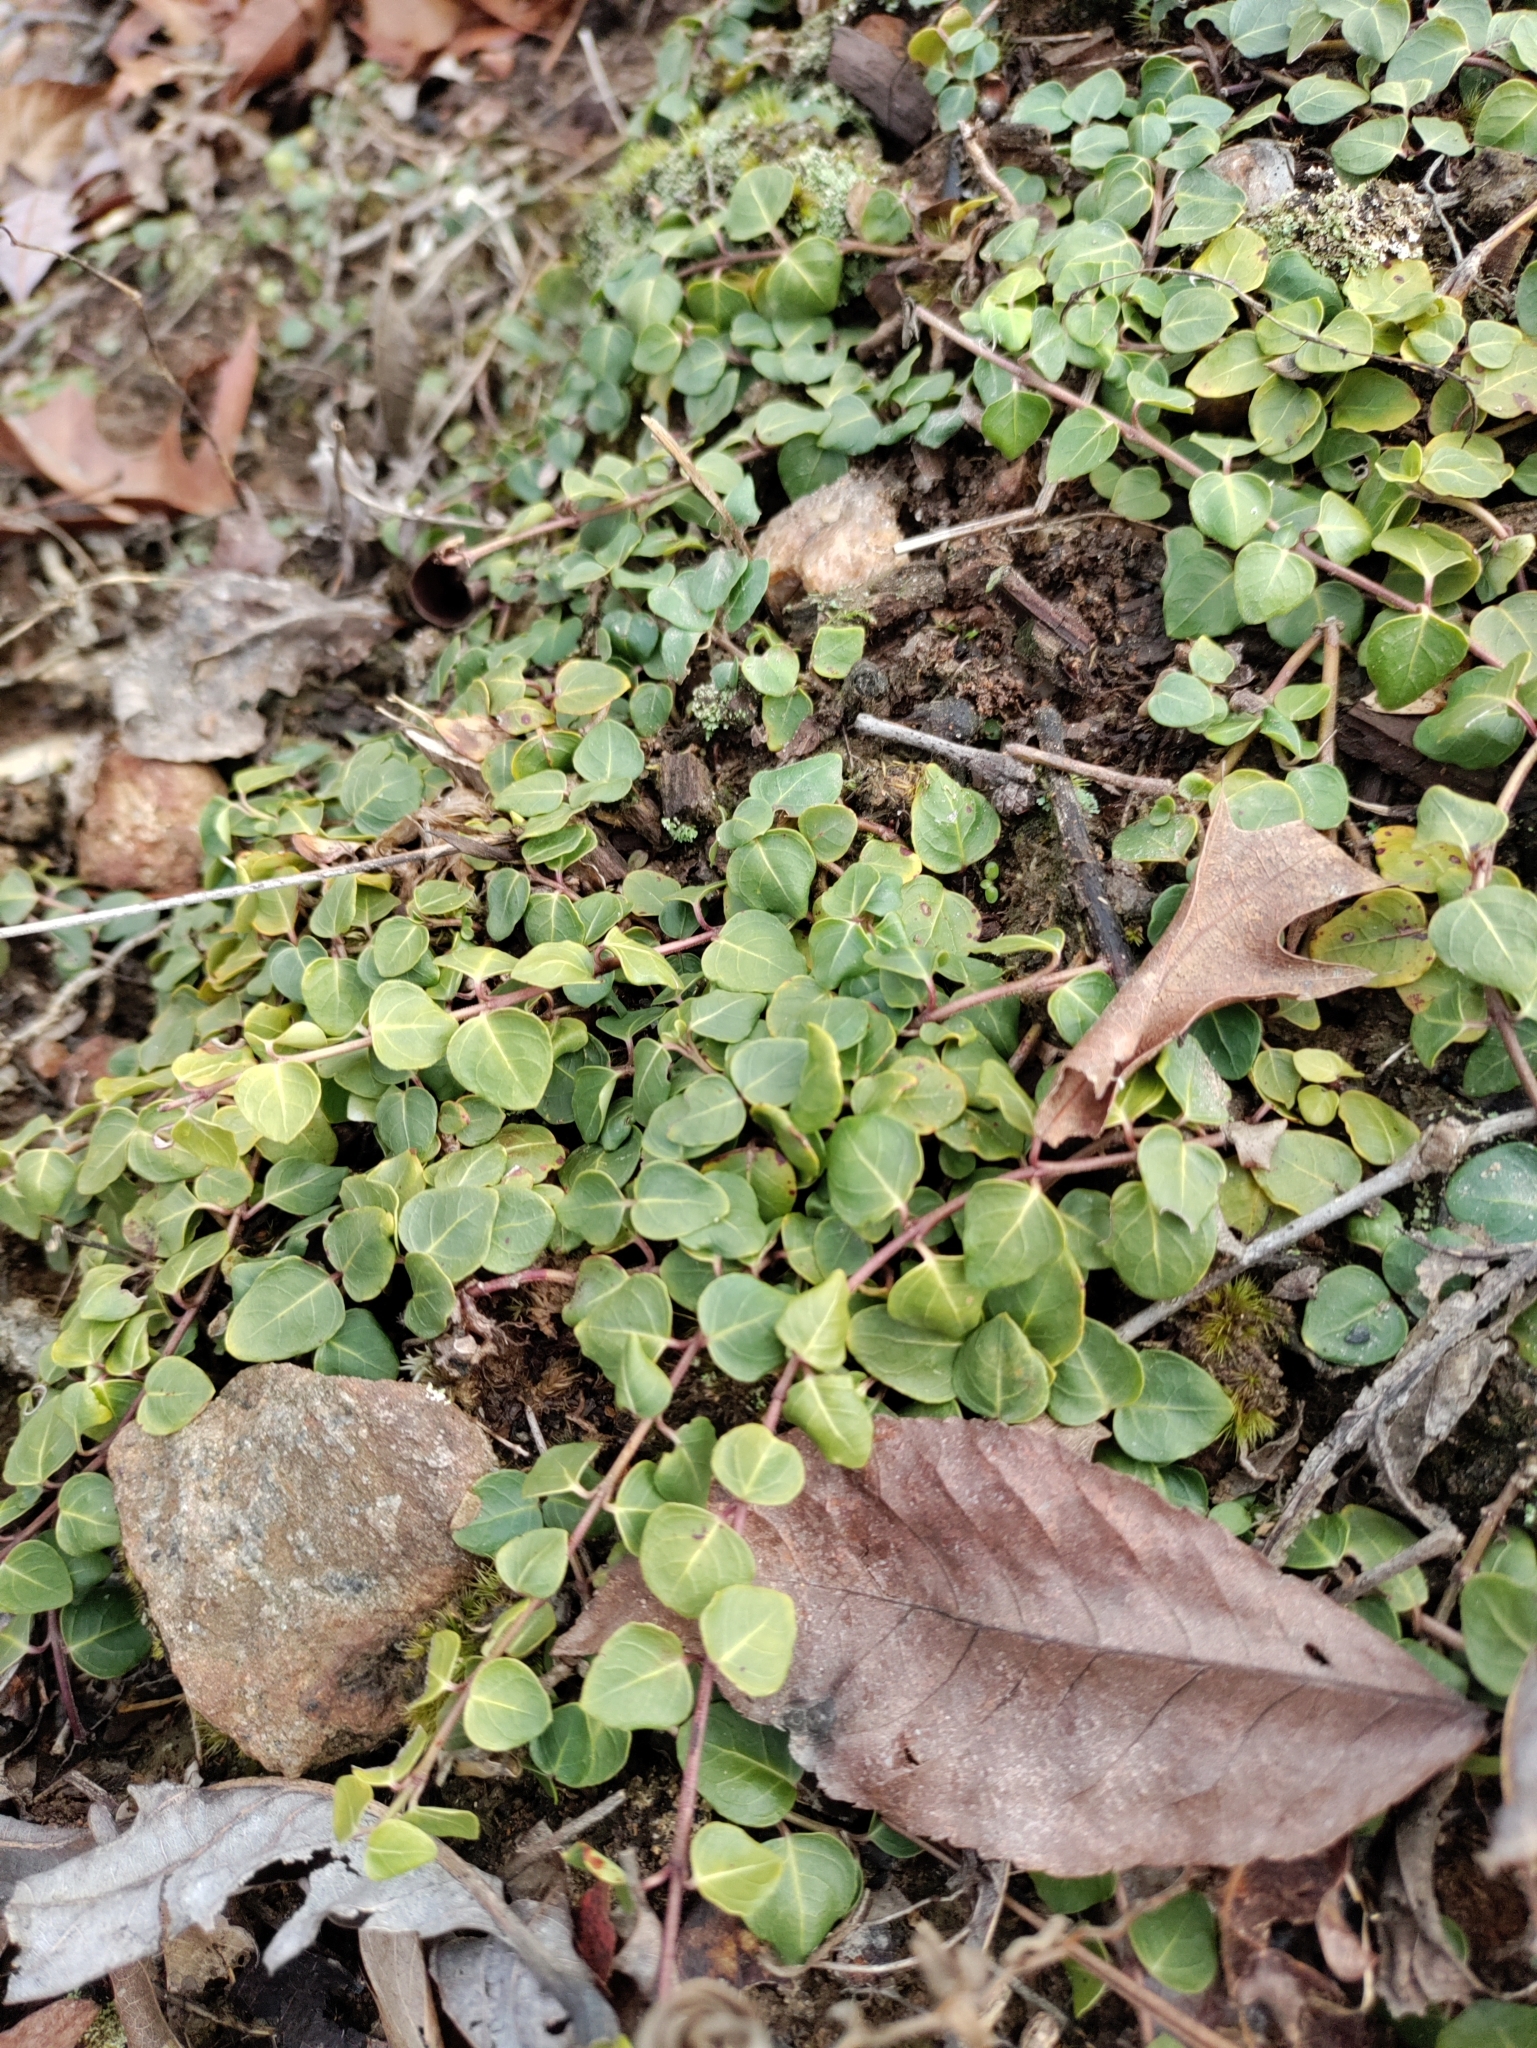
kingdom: Plantae
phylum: Tracheophyta
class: Magnoliopsida
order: Gentianales
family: Rubiaceae
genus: Mitchella
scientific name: Mitchella repens
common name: Partridge-berry
